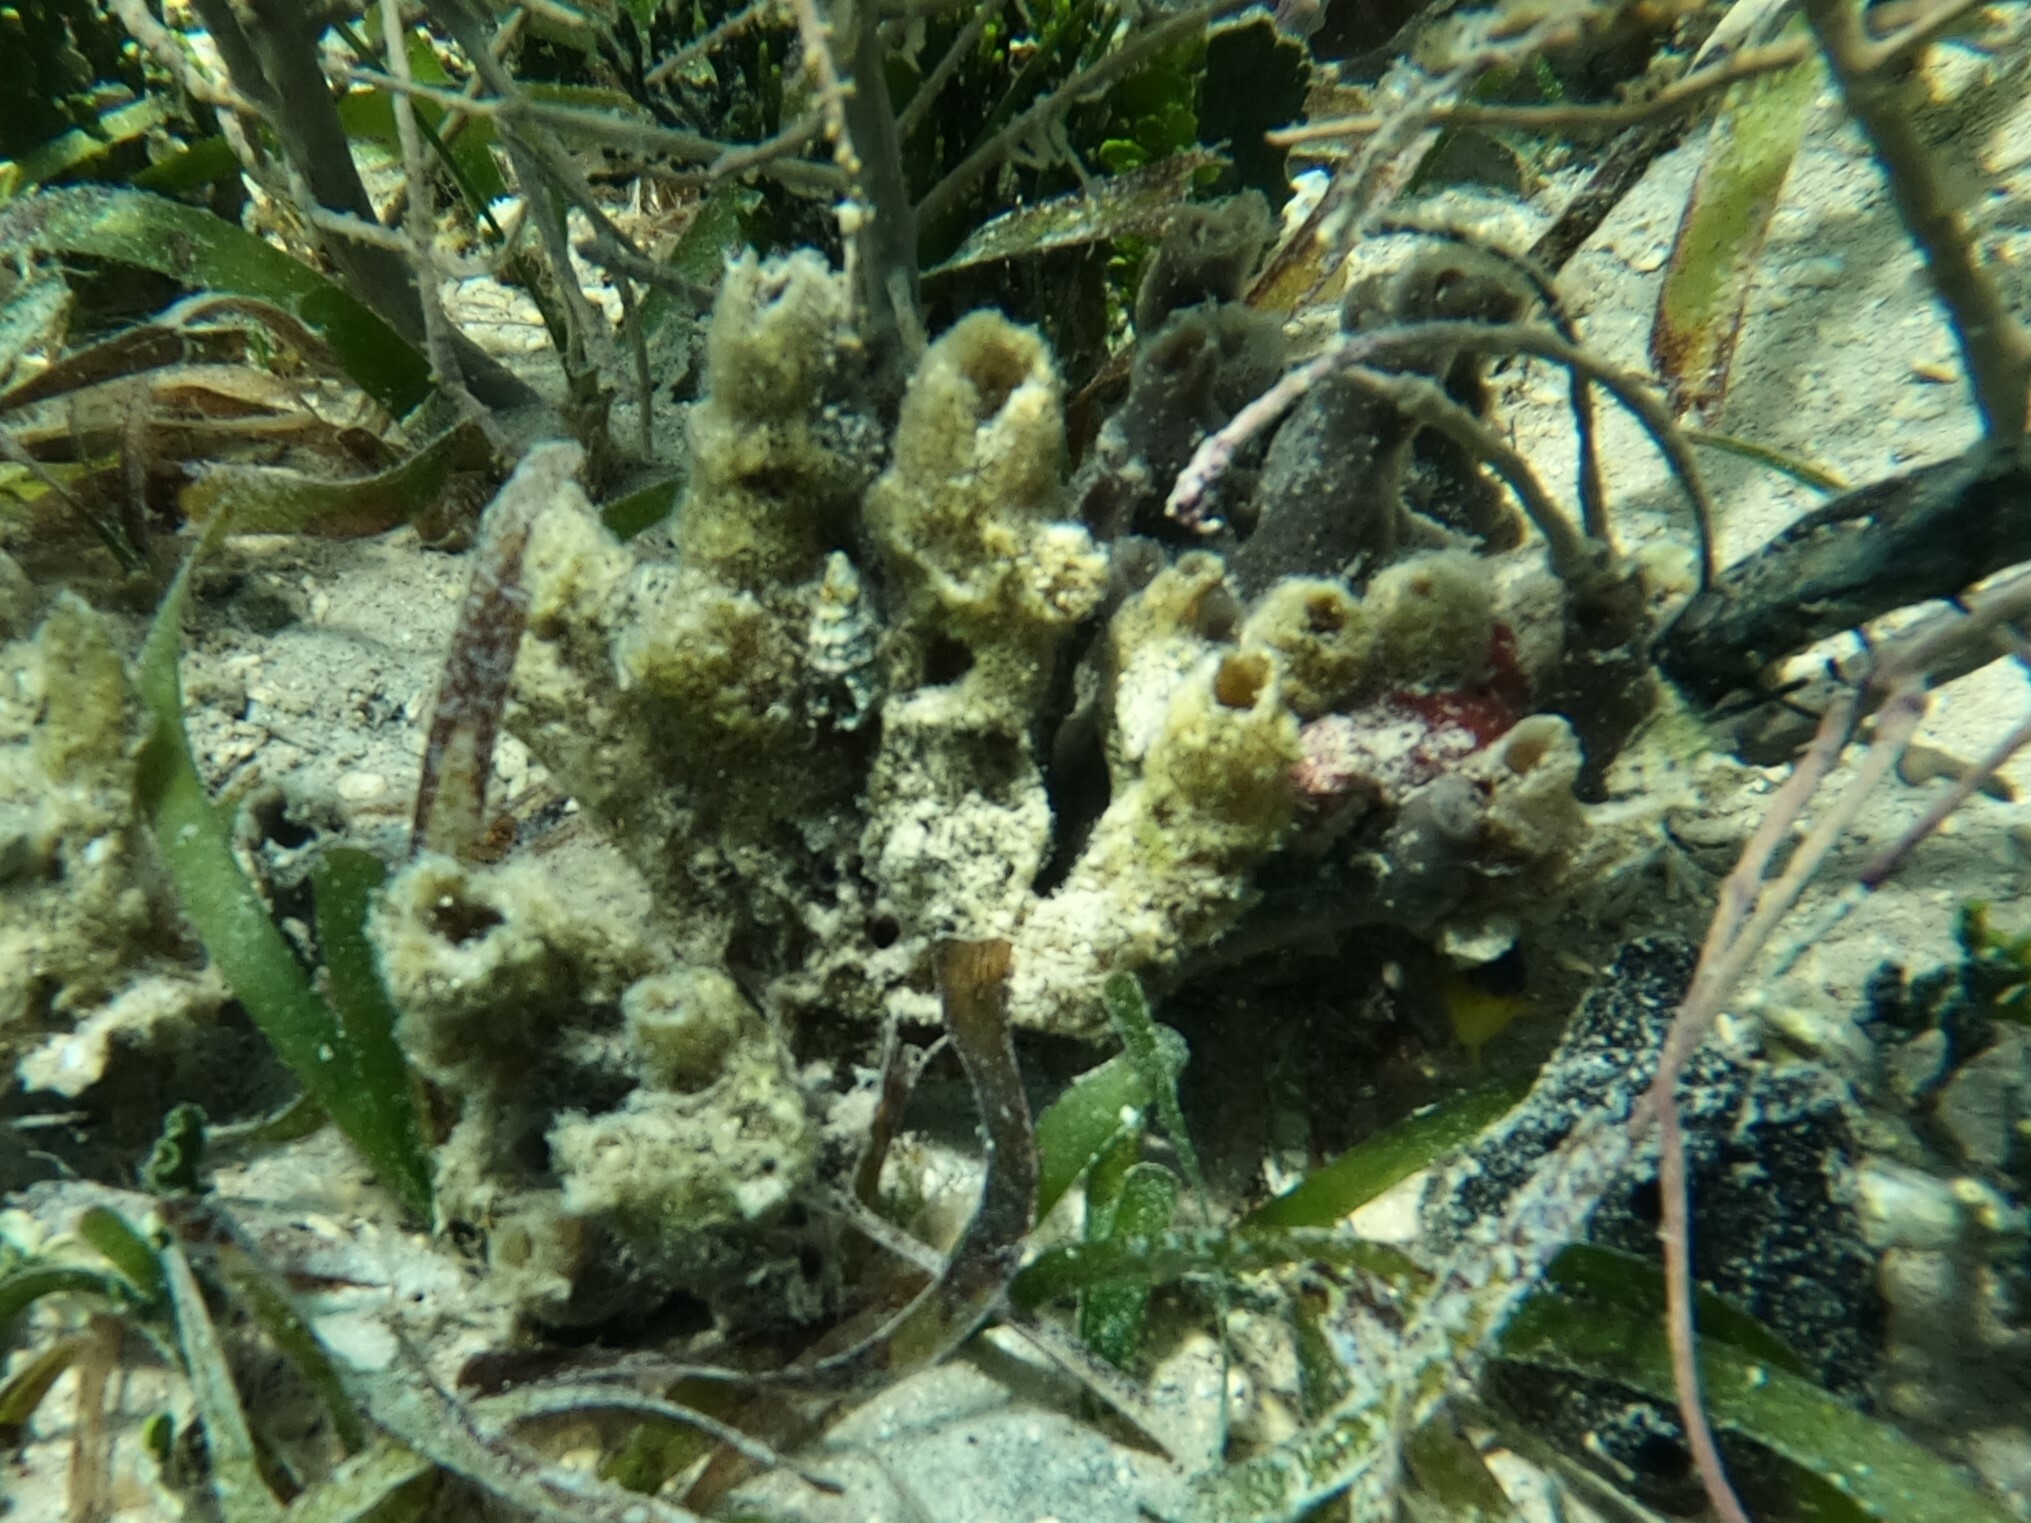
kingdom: Animalia
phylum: Porifera
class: Demospongiae
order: Dictyoceratida
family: Dysideidae
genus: Dysidea
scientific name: Dysidea janiae
